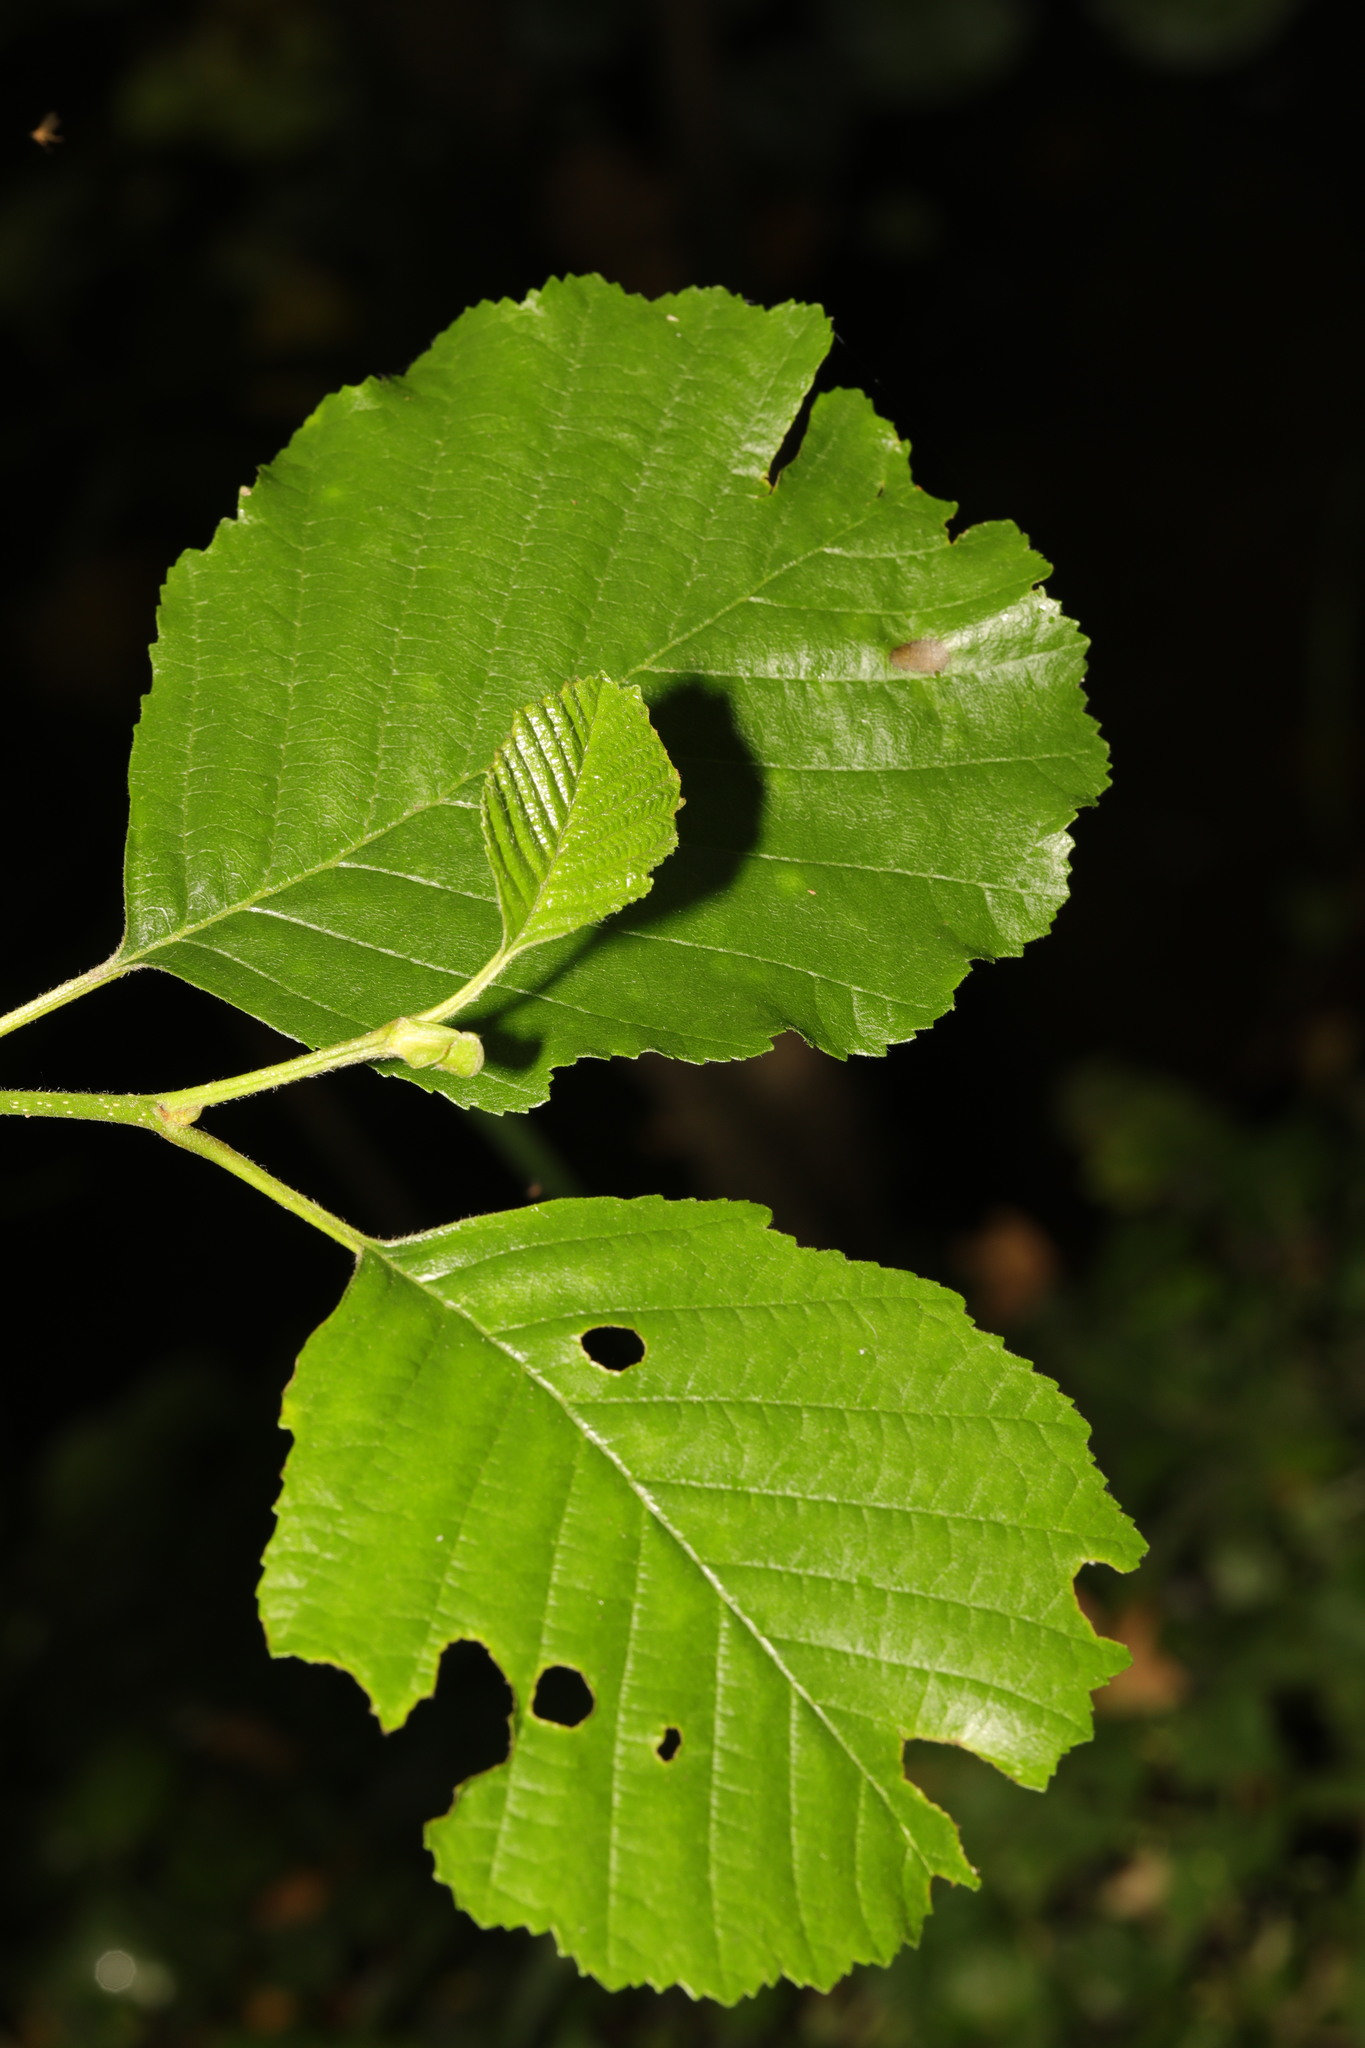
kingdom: Plantae
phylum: Tracheophyta
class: Magnoliopsida
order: Fagales
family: Betulaceae
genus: Alnus
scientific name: Alnus glutinosa
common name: Black alder
